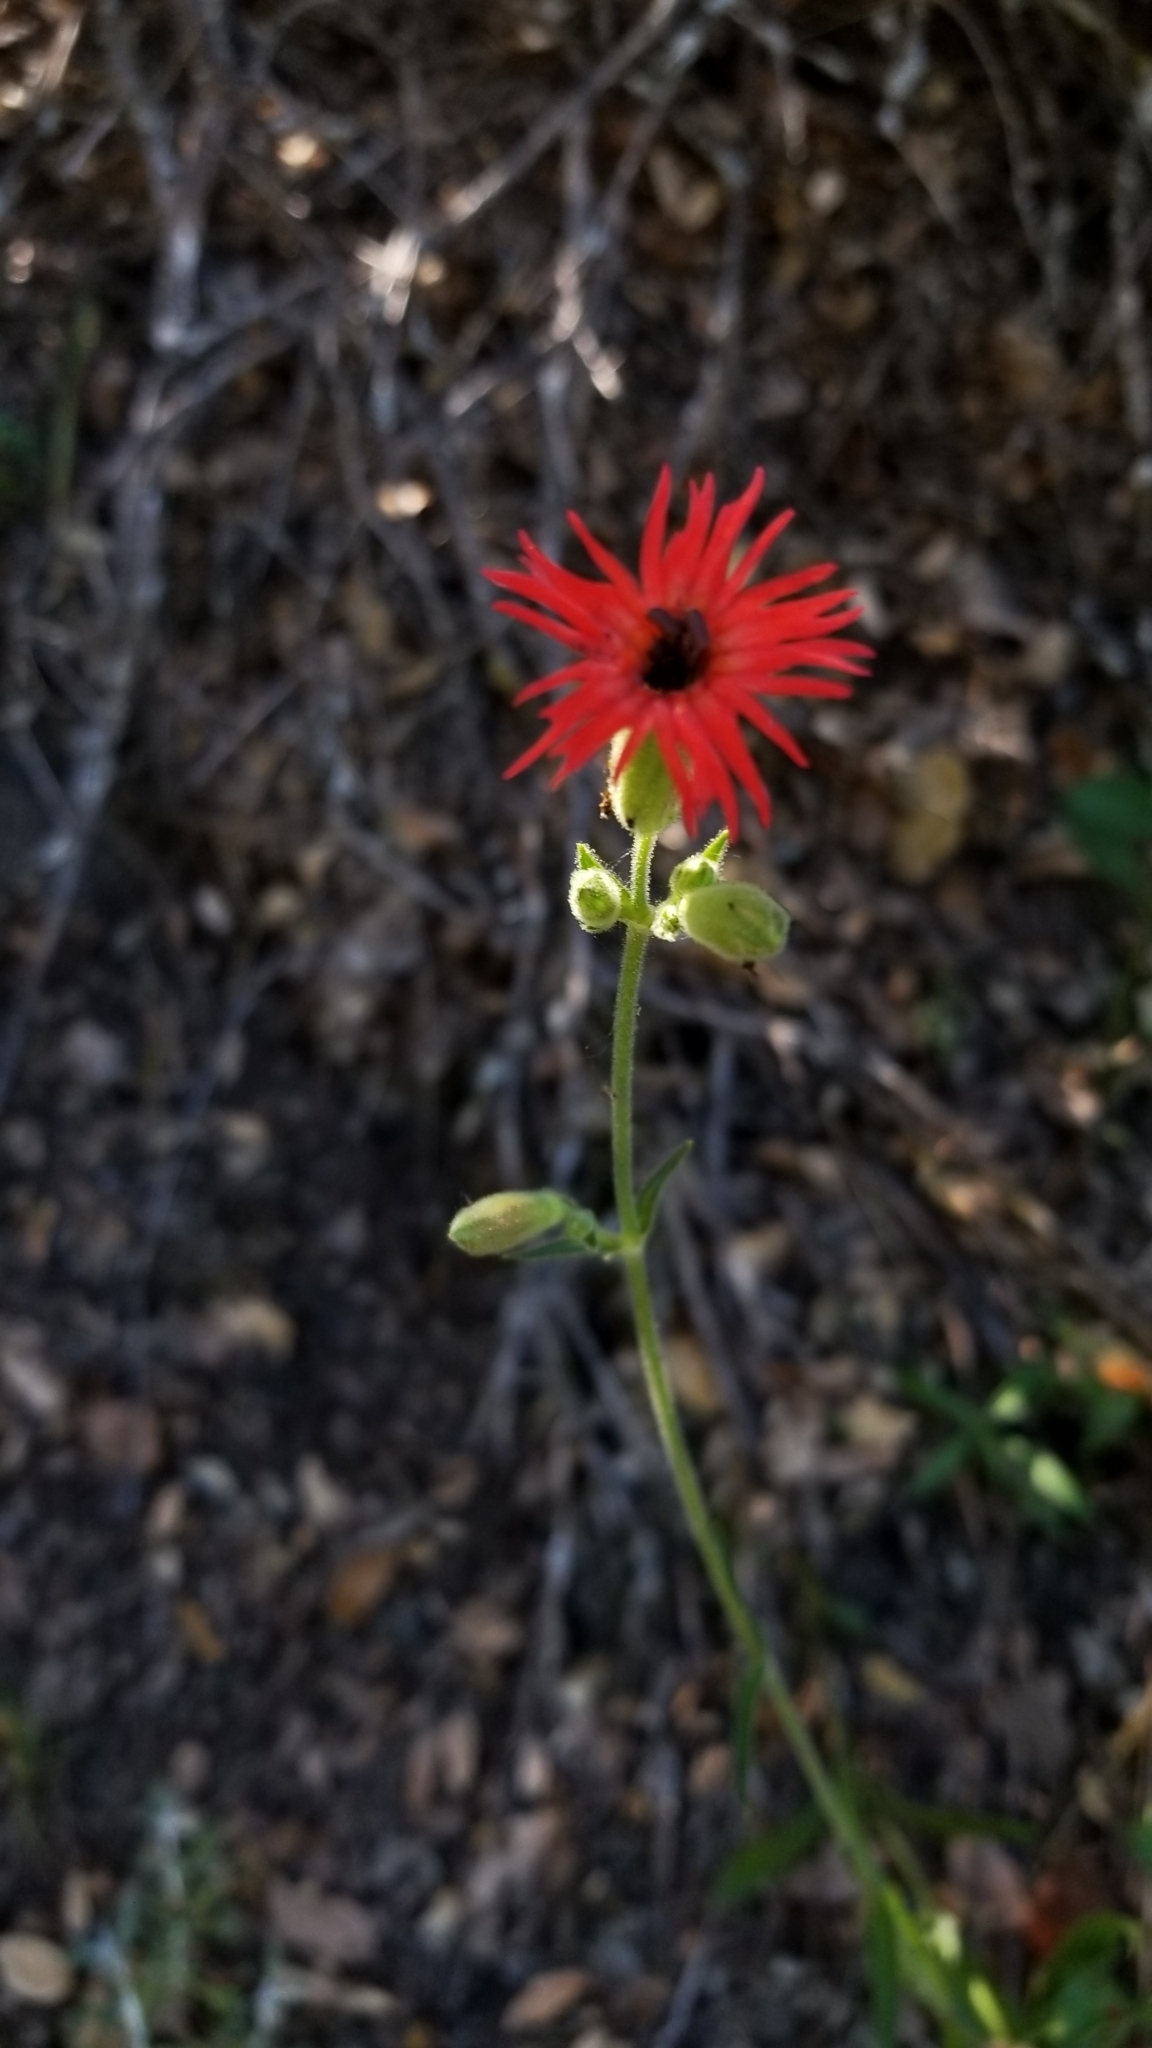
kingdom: Plantae
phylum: Tracheophyta
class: Magnoliopsida
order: Caryophyllales
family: Caryophyllaceae
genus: Silene
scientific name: Silene laciniata
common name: Indian-pink
